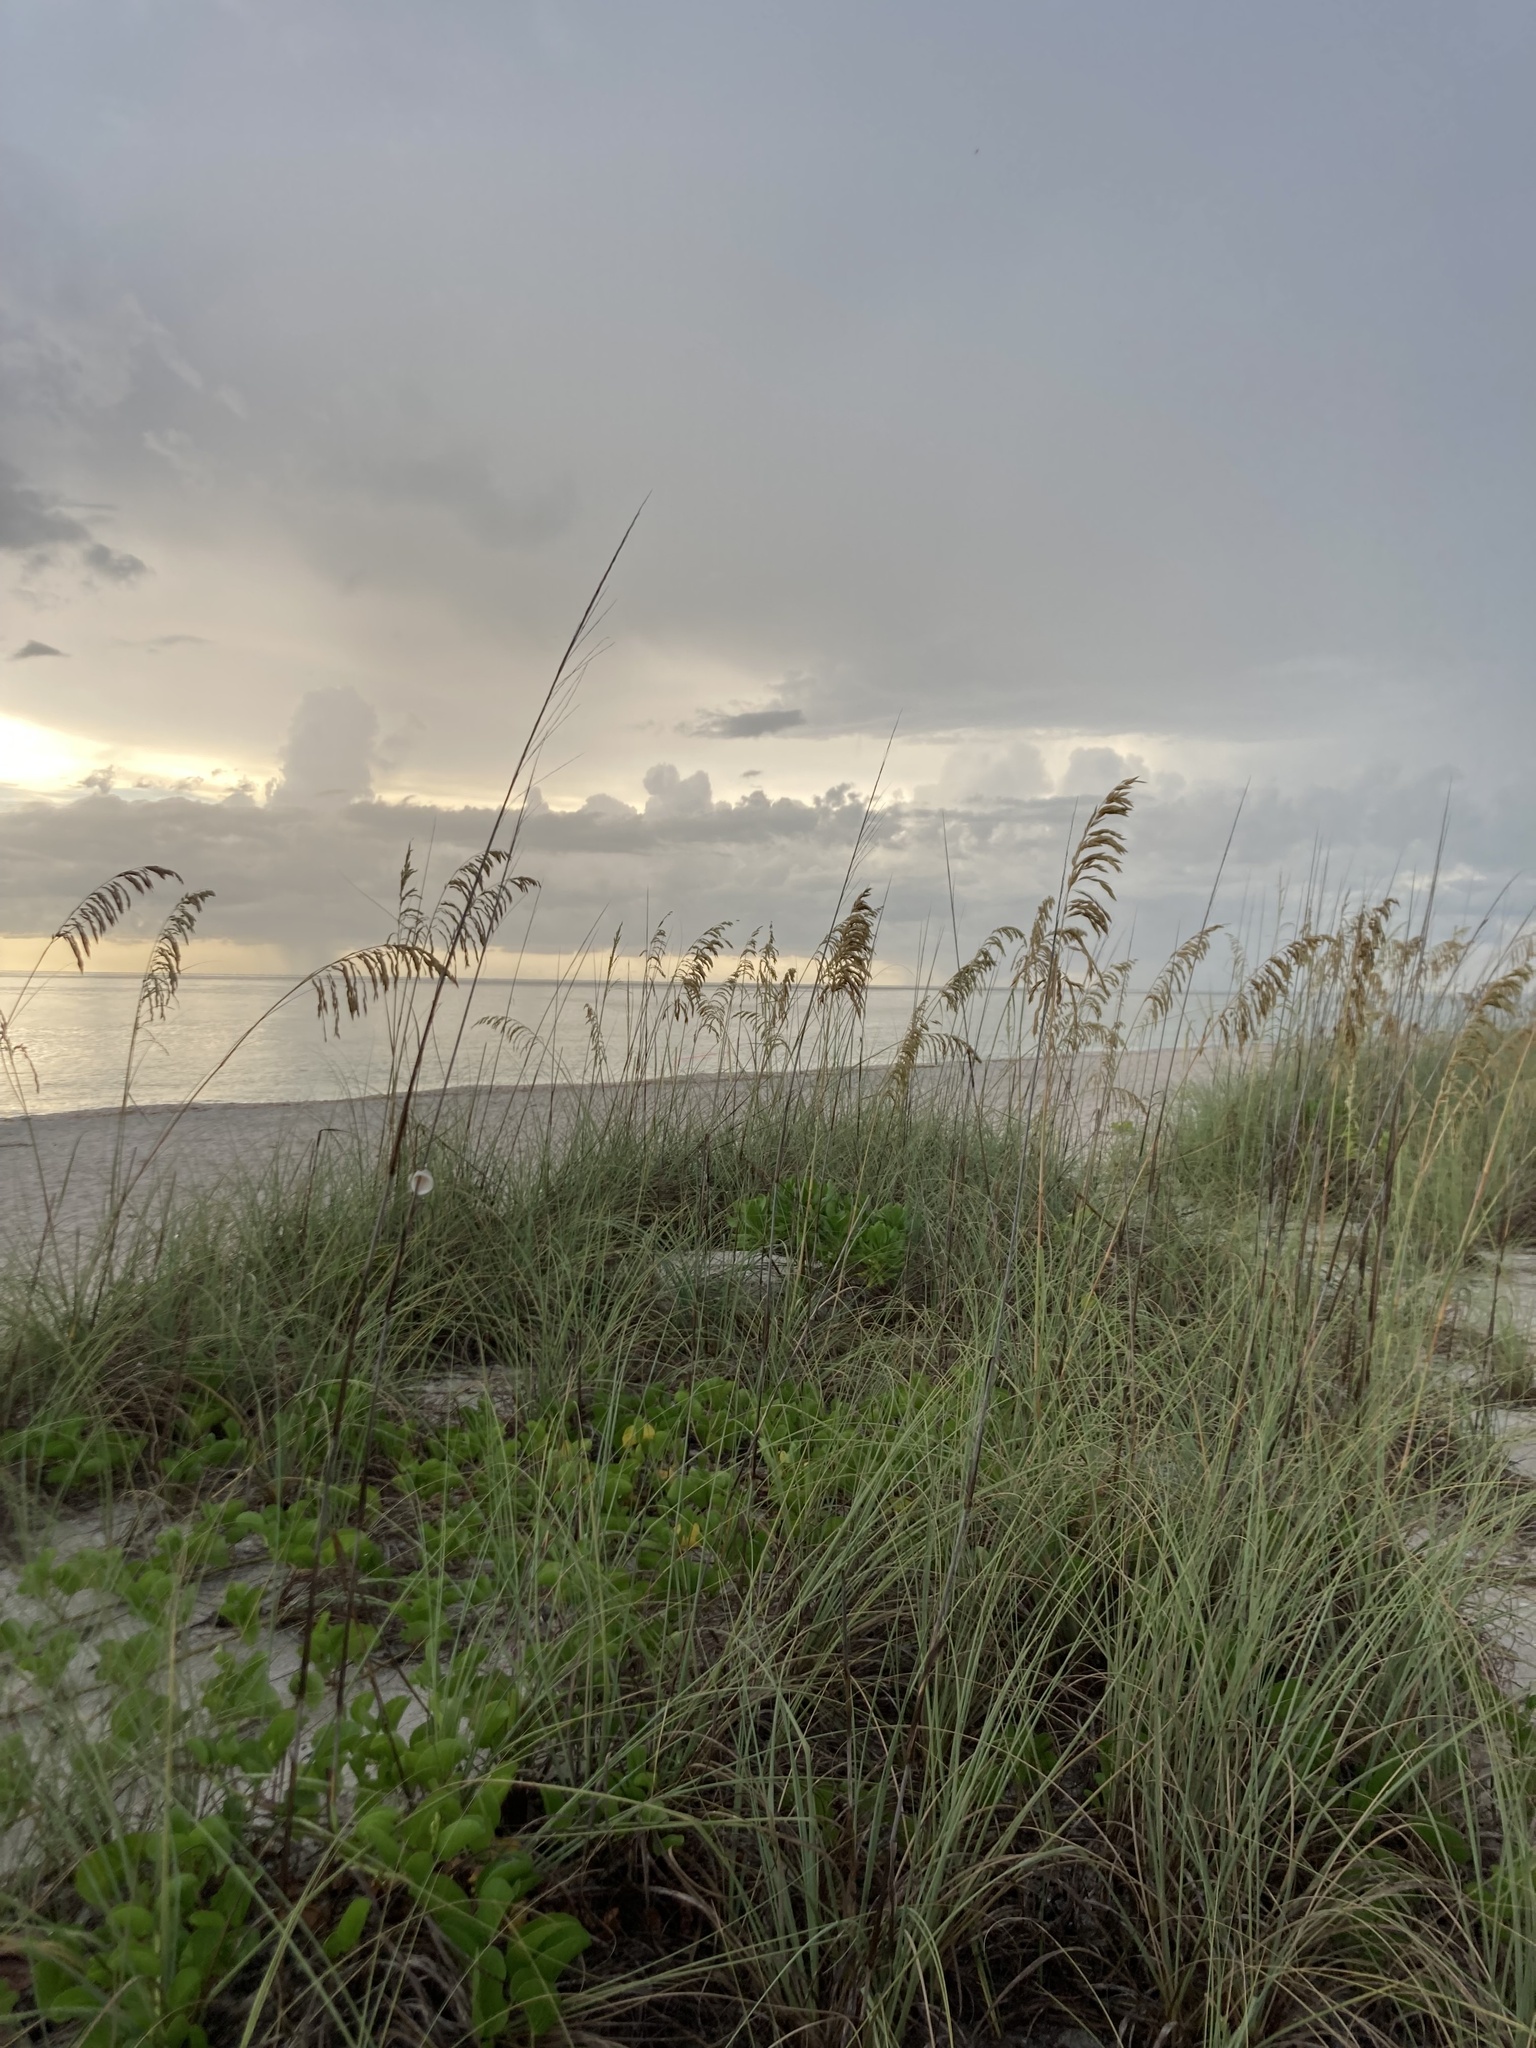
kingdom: Plantae
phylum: Tracheophyta
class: Liliopsida
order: Poales
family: Poaceae
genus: Uniola
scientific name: Uniola paniculata
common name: Seaside-oats
